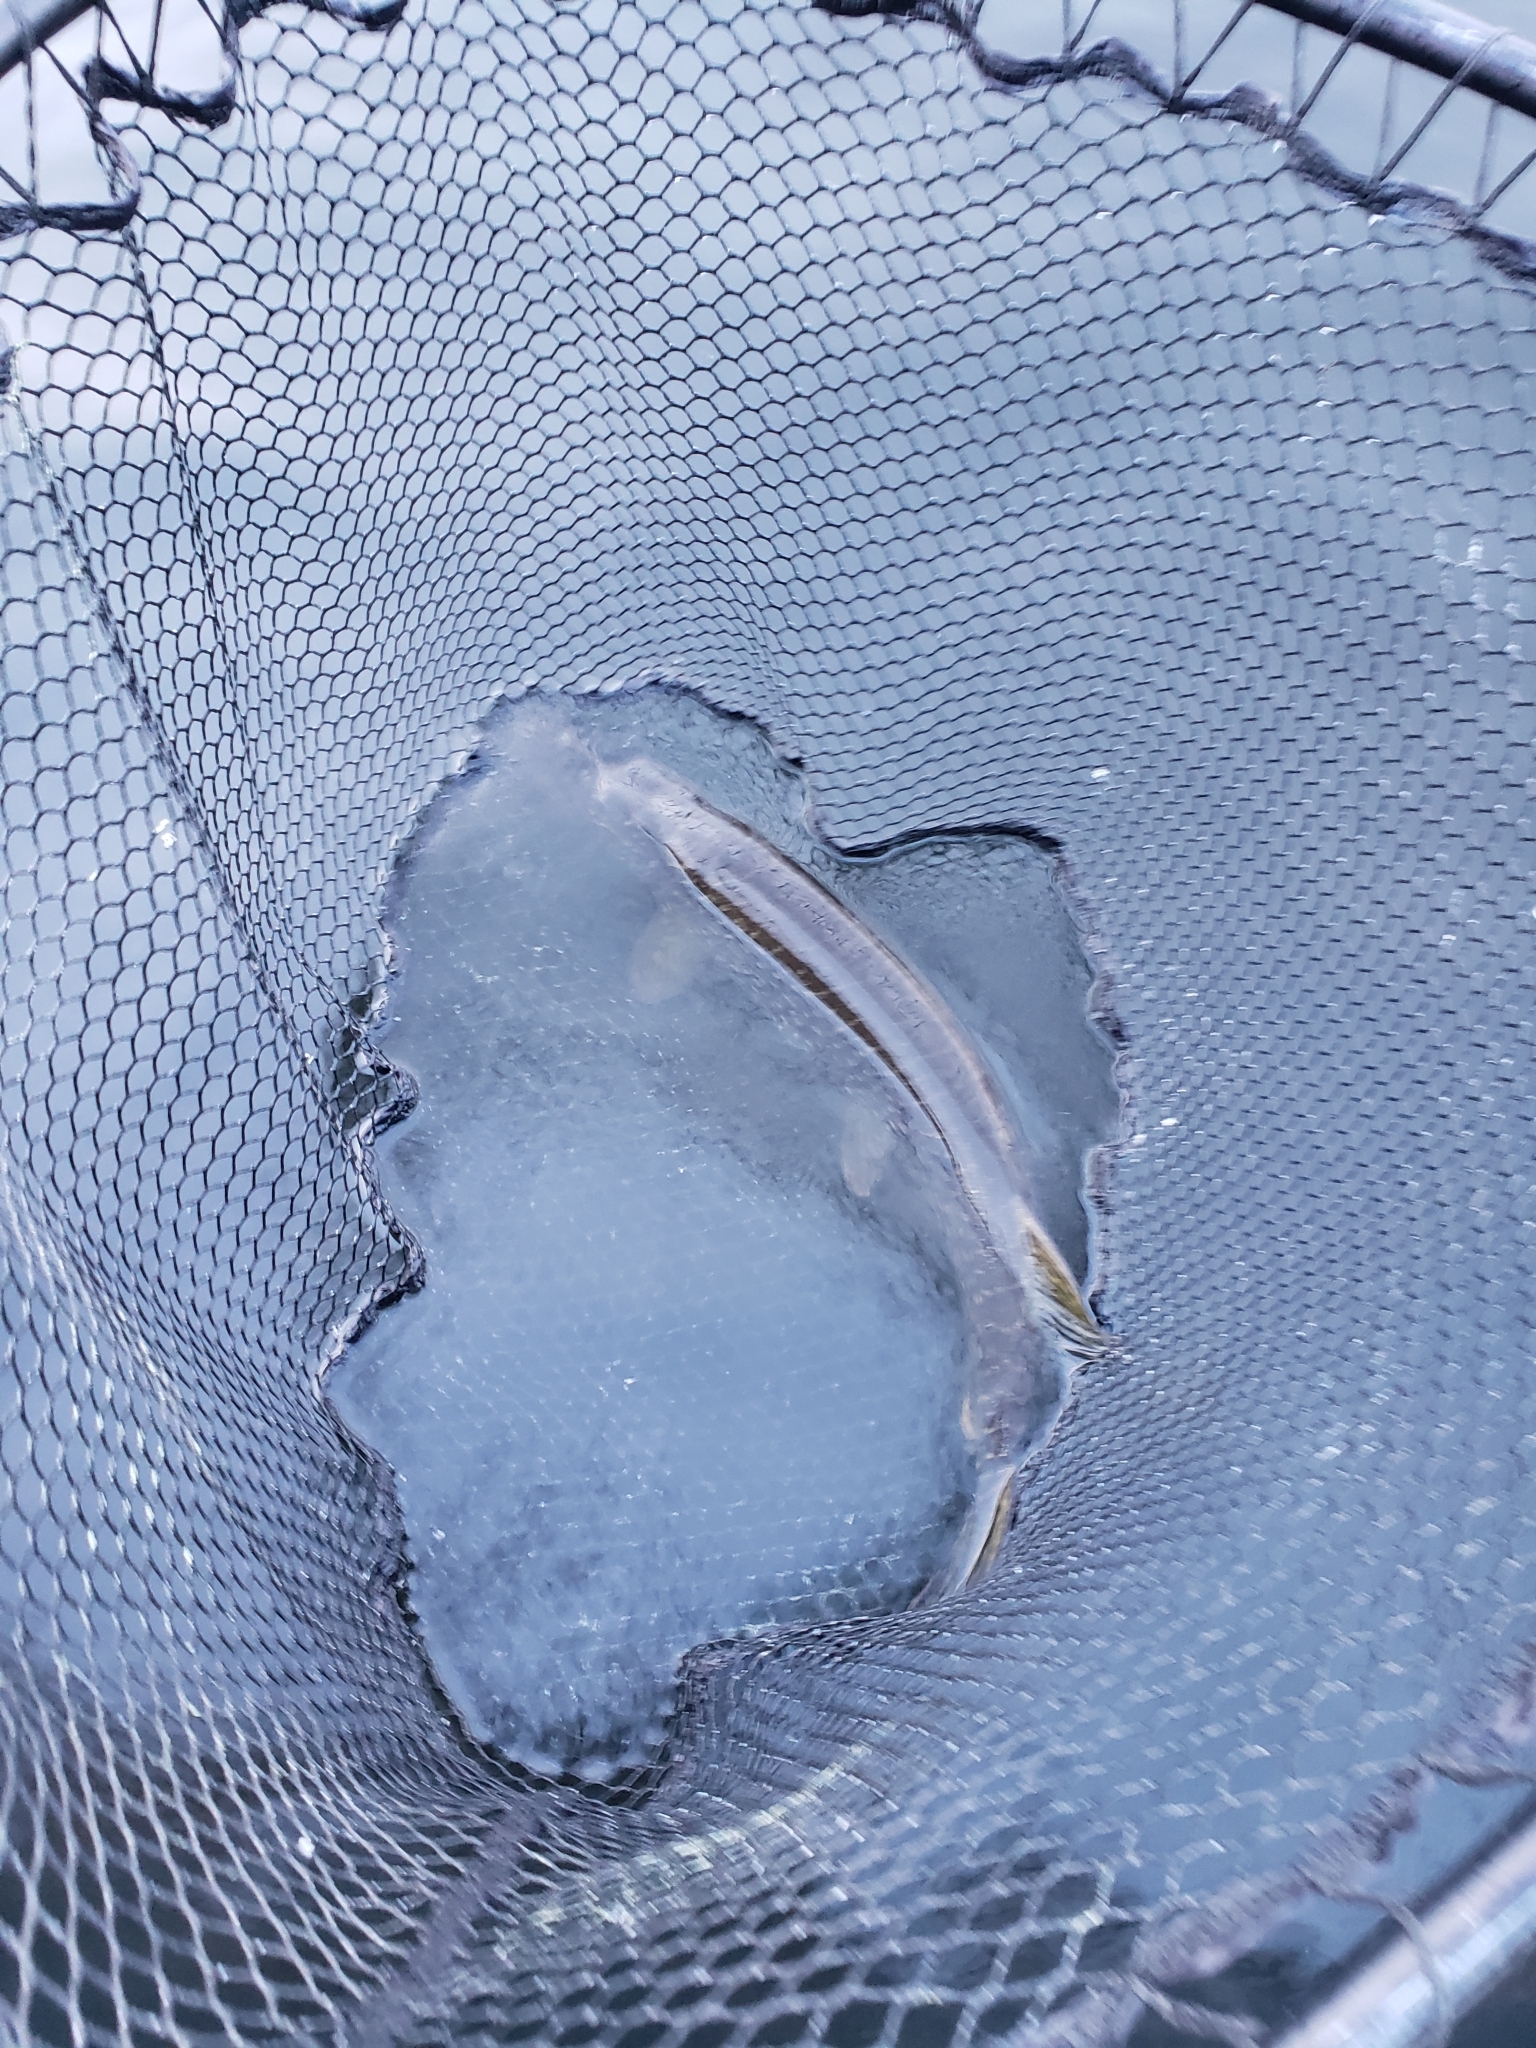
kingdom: Animalia
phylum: Chordata
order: Esociformes
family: Esocidae
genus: Esox
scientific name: Esox lucius
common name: Northern pike
